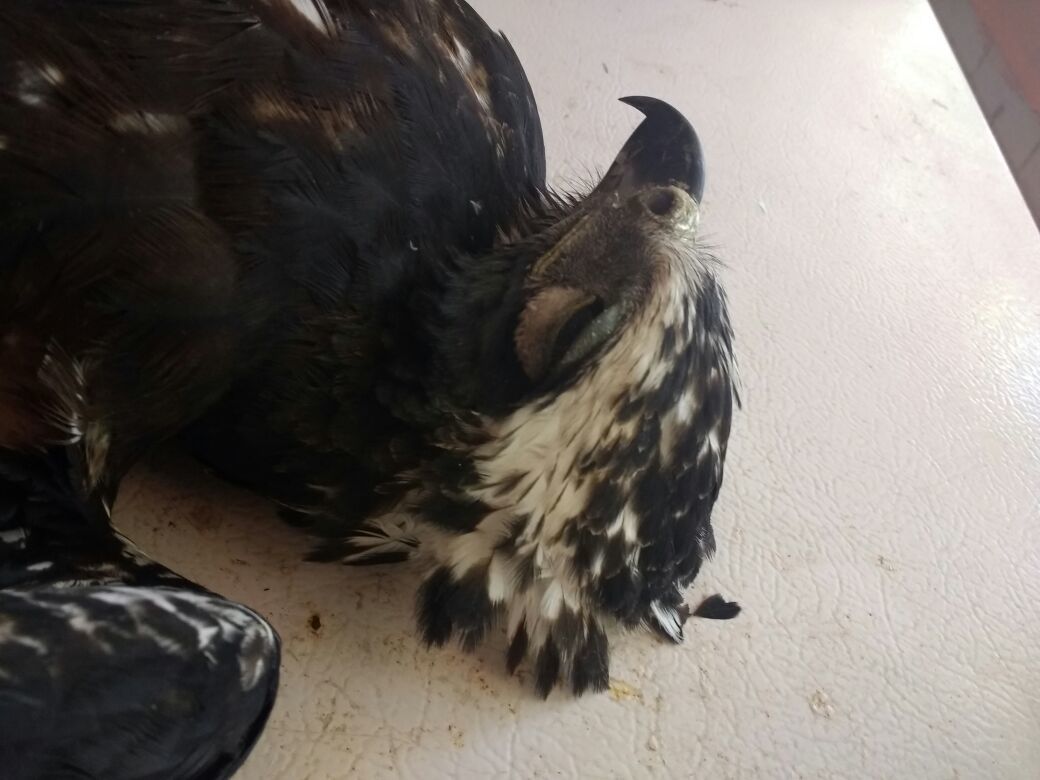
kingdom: Animalia
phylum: Chordata
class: Aves
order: Accipitriformes
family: Accipitridae
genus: Spizaetus
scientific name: Spizaetus tyrannus
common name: Black hawk-eagle
